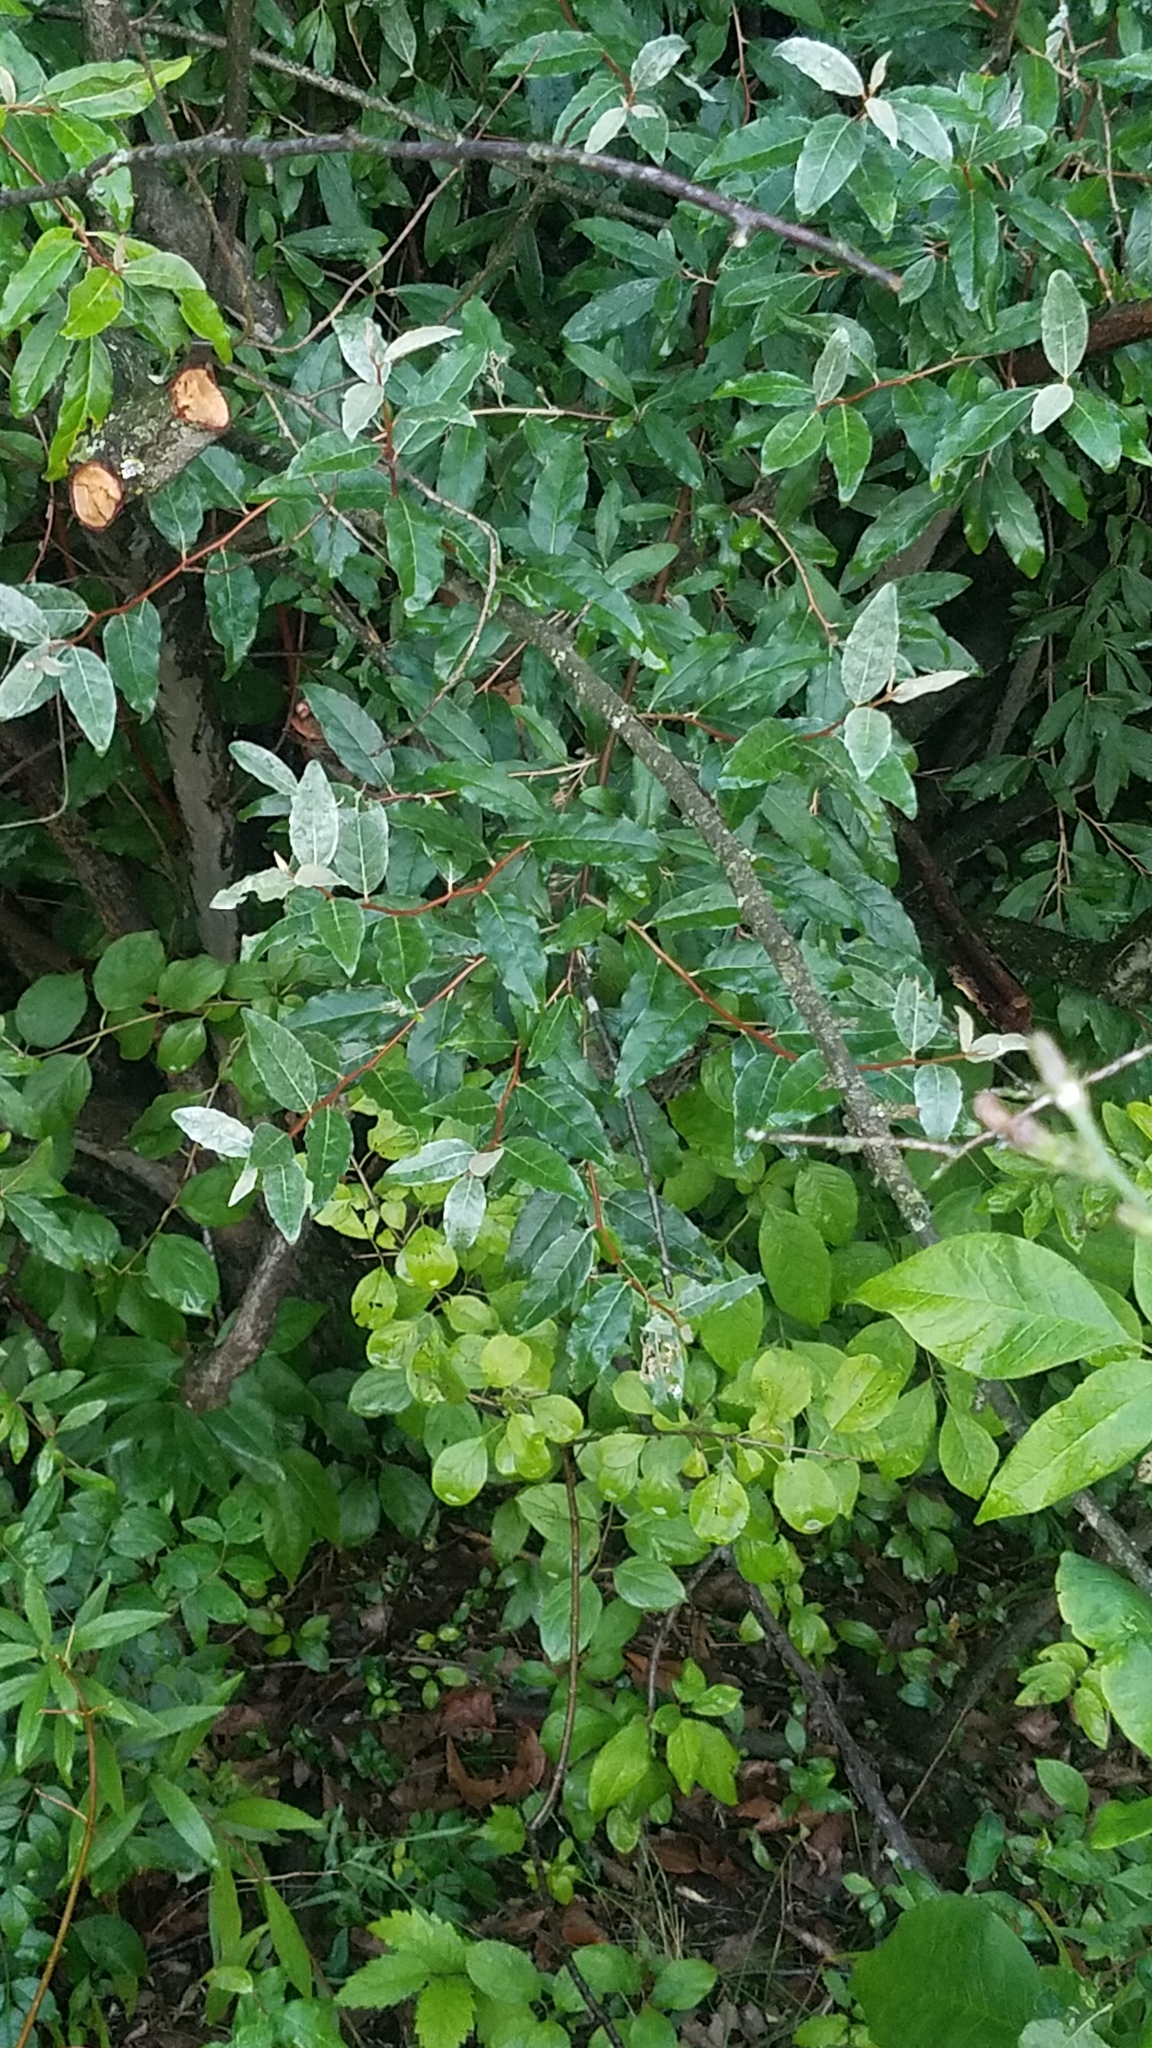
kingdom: Plantae
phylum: Tracheophyta
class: Magnoliopsida
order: Rosales
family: Elaeagnaceae
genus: Elaeagnus
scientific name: Elaeagnus umbellata
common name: Autumn olive
